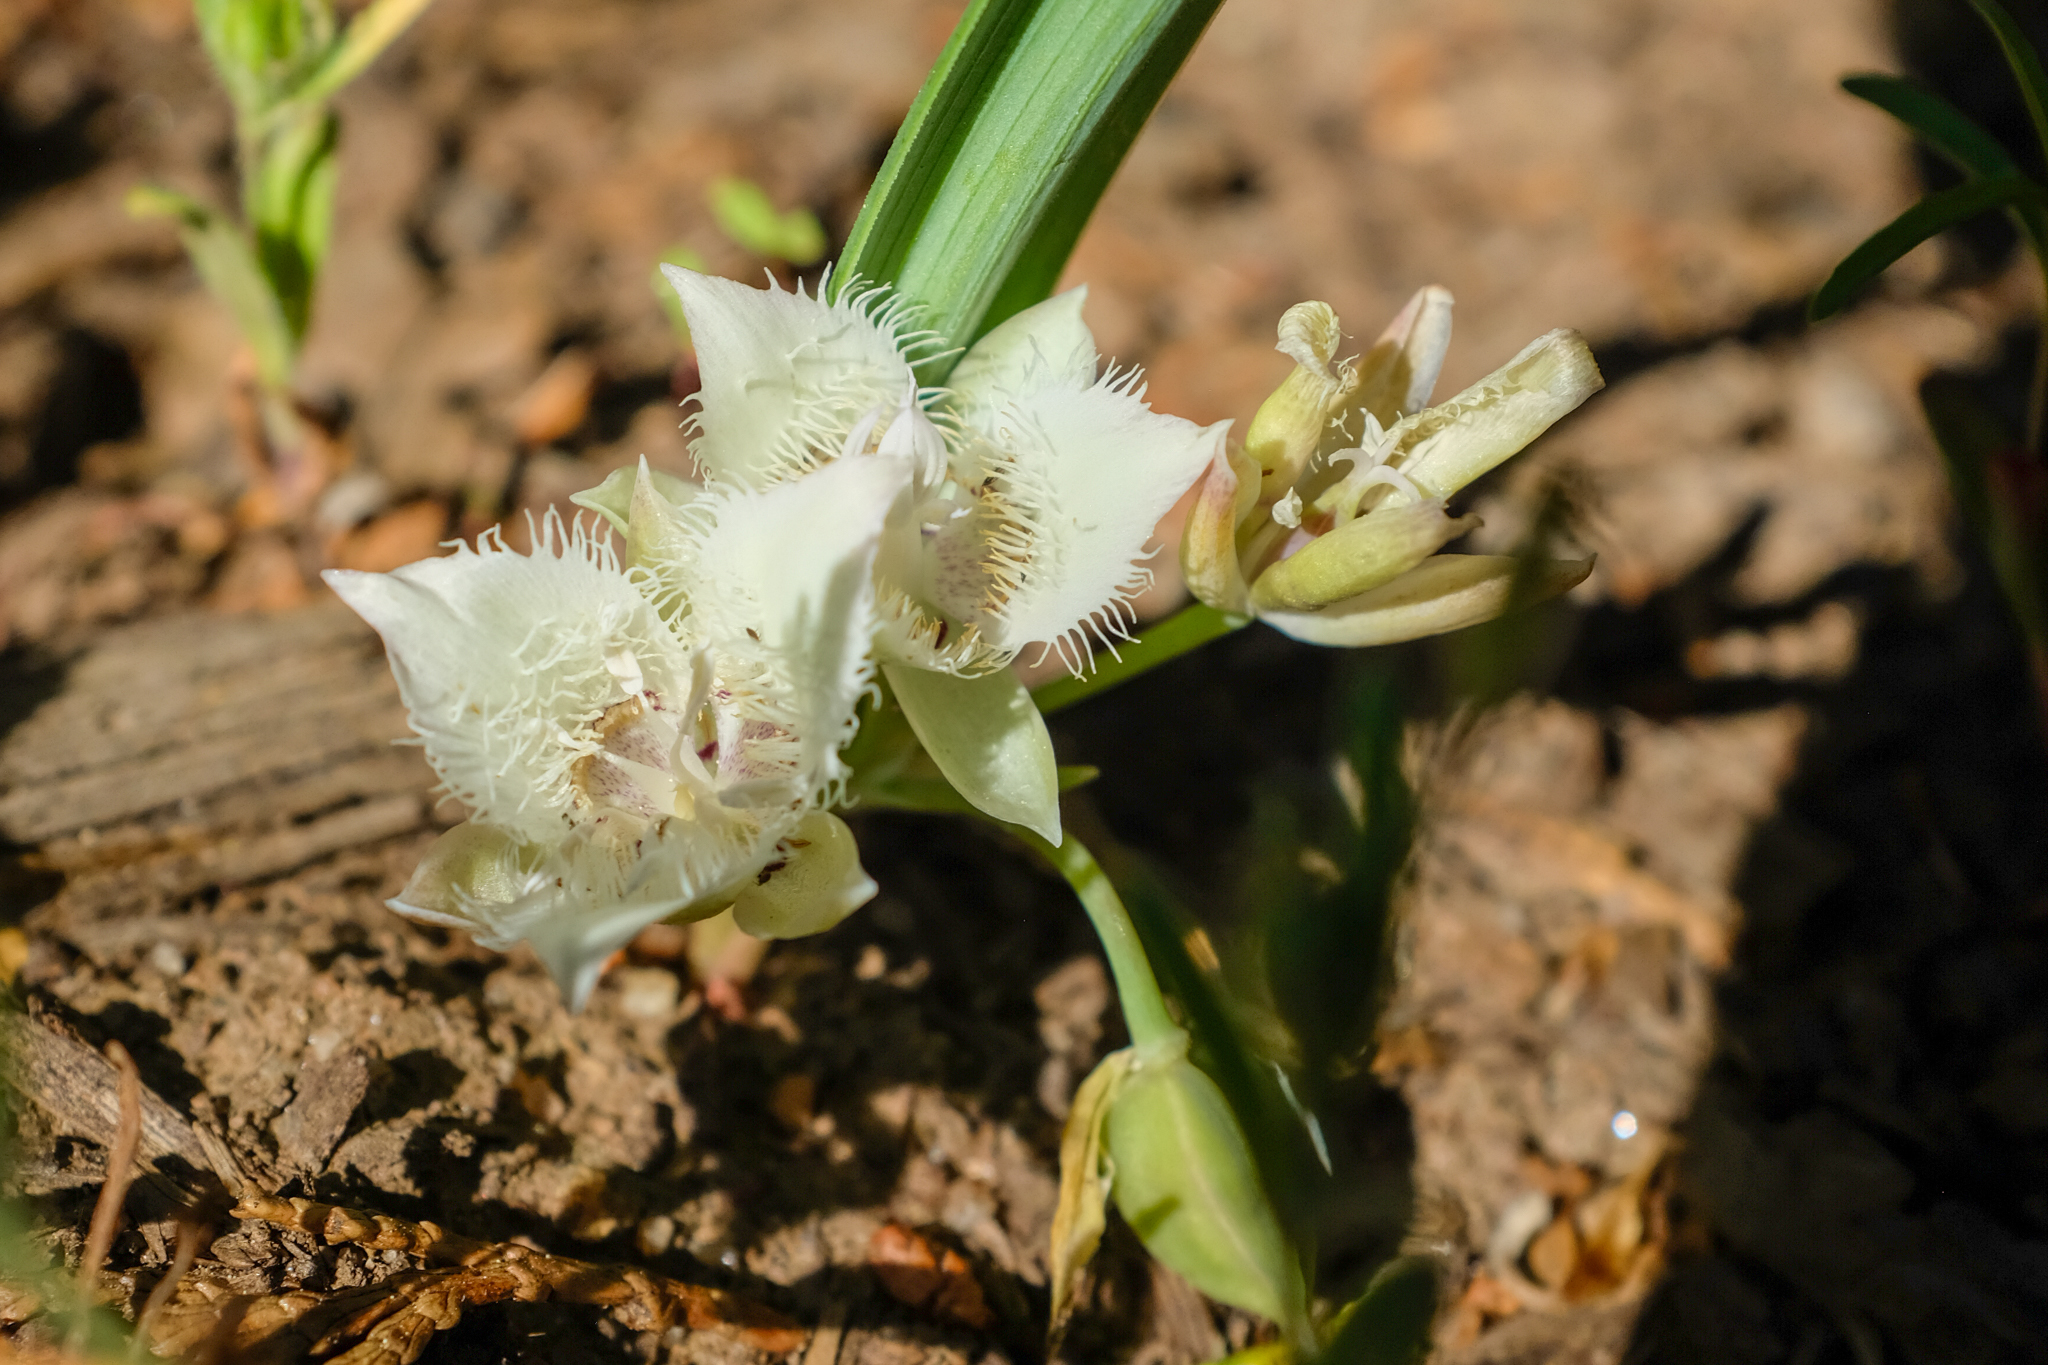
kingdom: Plantae
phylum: Tracheophyta
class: Liliopsida
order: Liliales
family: Liliaceae
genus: Calochortus
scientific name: Calochortus westonii
